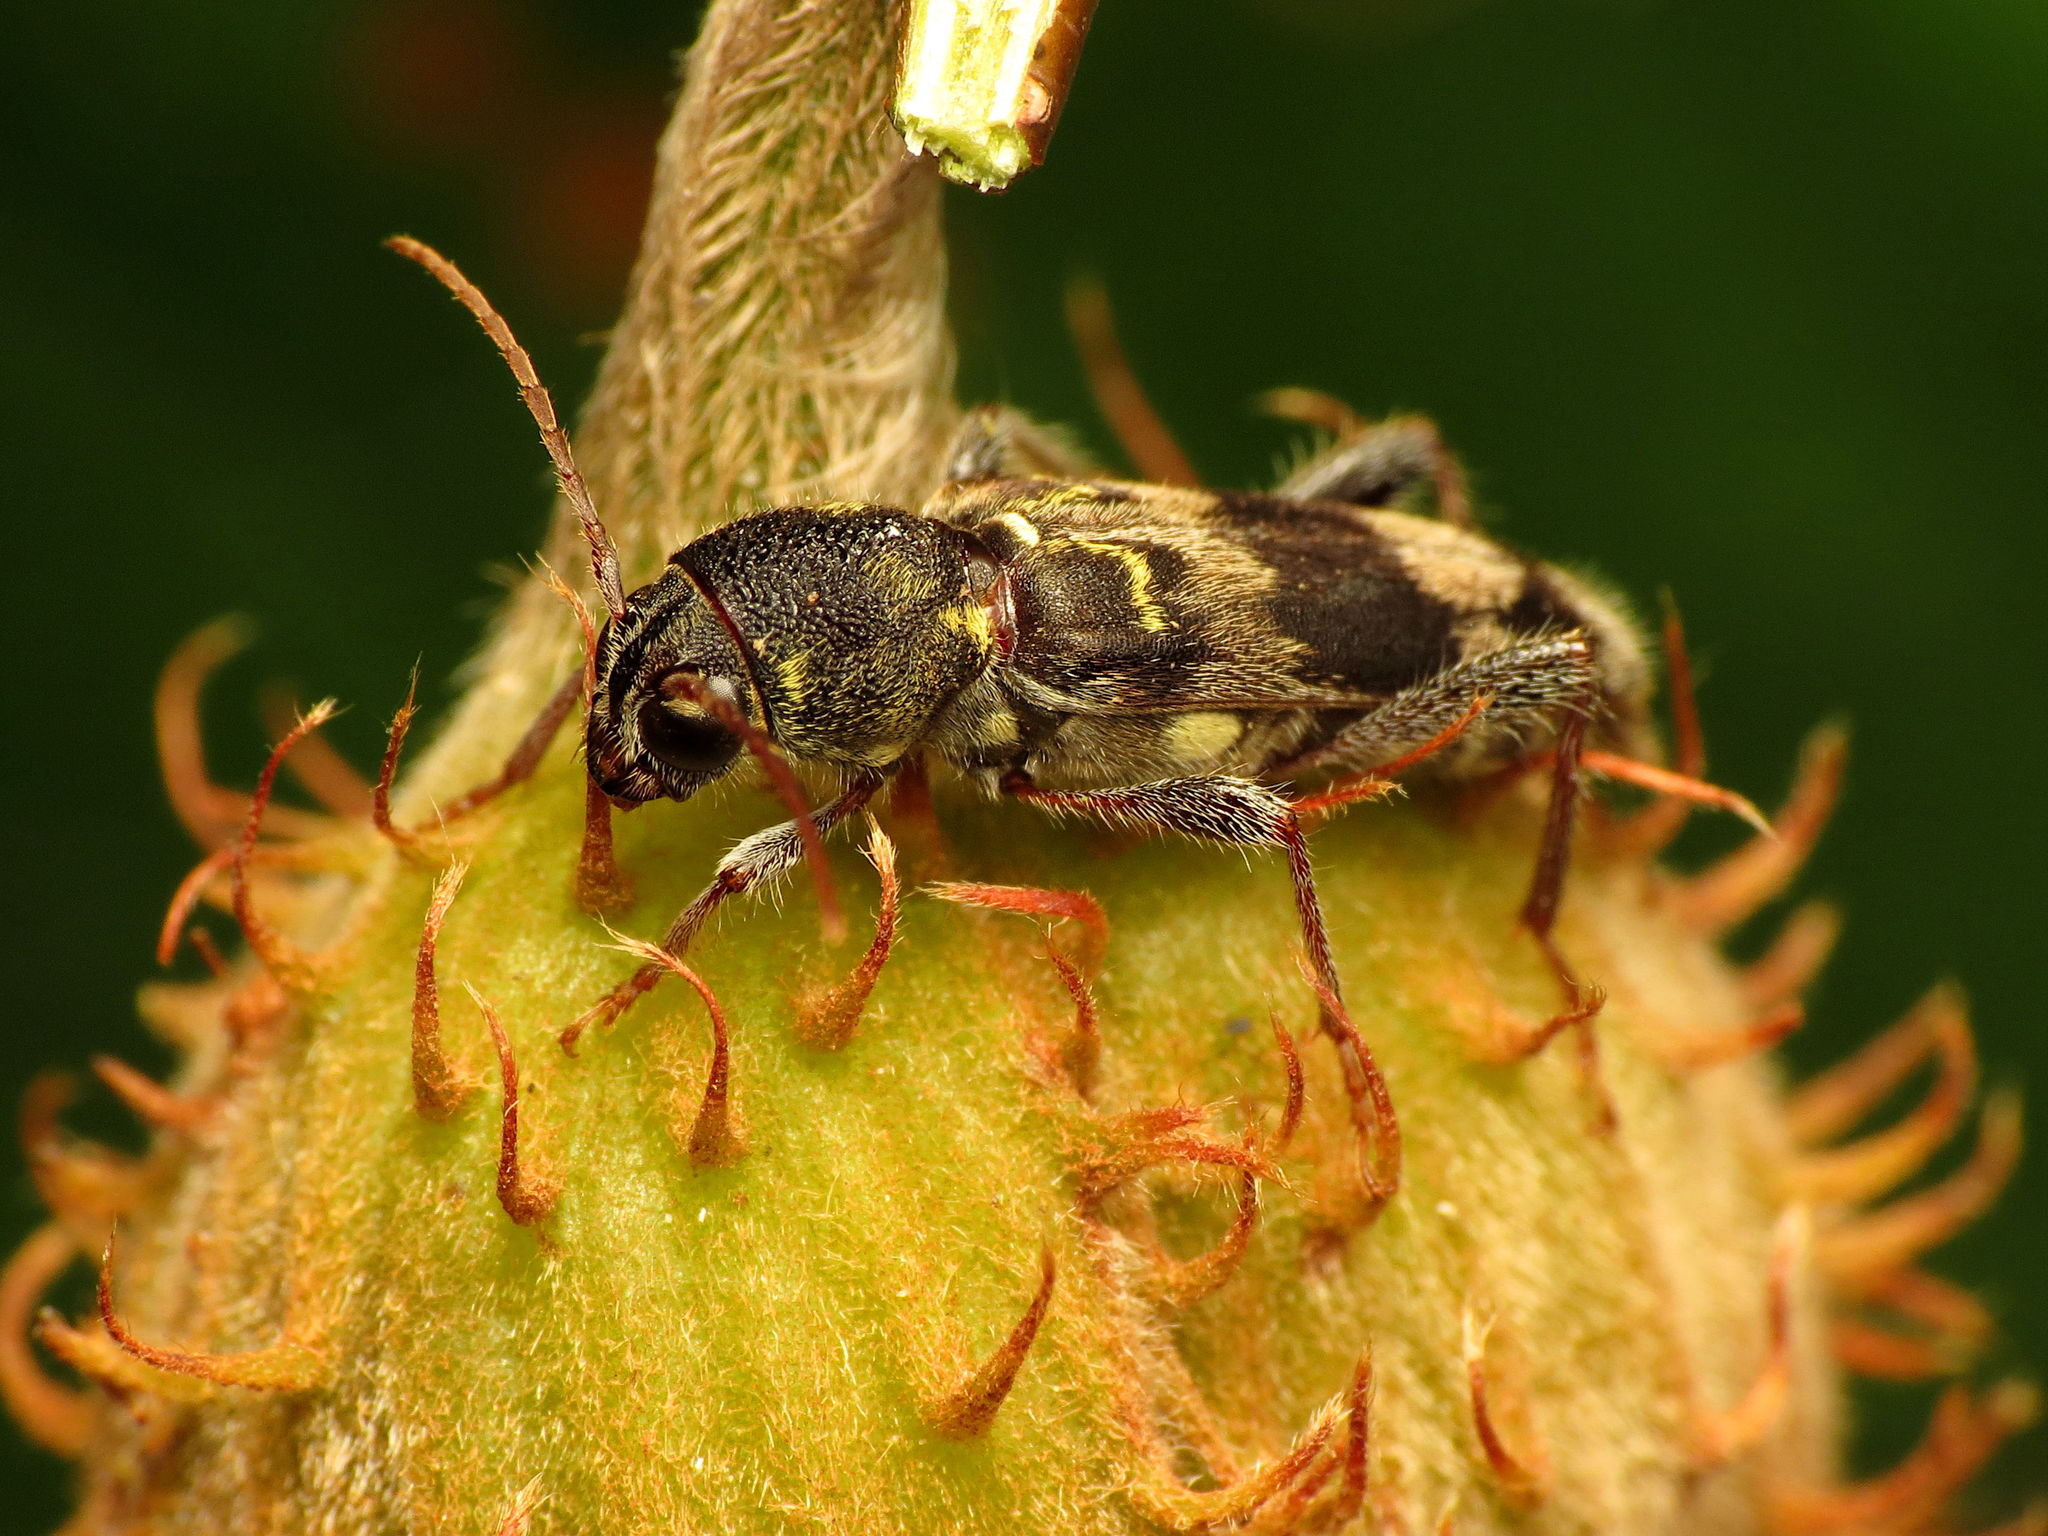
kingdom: Animalia
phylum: Arthropoda
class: Insecta
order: Coleoptera
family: Cerambycidae
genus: Xylotrechus
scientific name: Xylotrechus colonus
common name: Long-horned beetle
